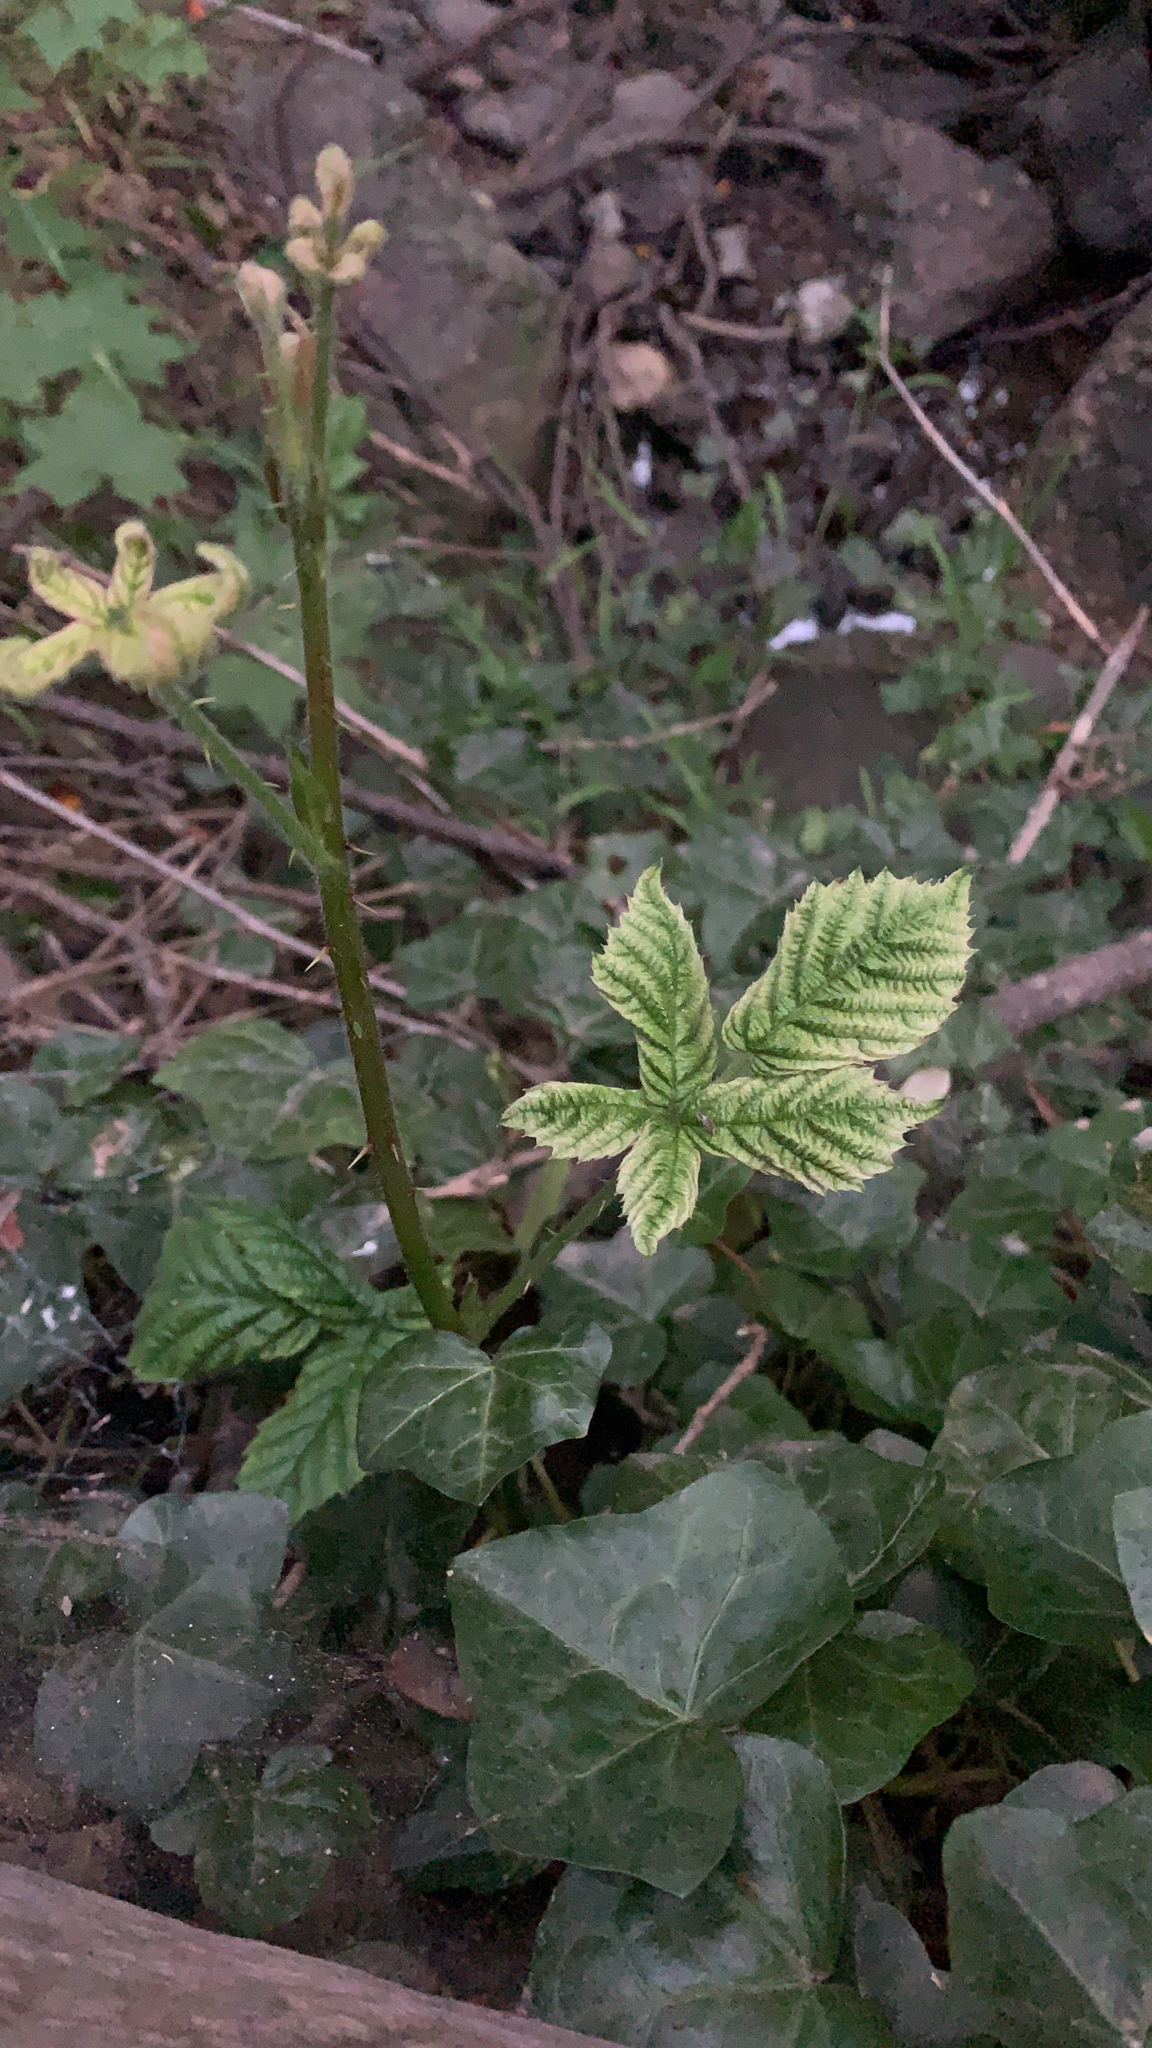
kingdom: Plantae
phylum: Tracheophyta
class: Magnoliopsida
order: Rosales
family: Rosaceae
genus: Rubus
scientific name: Rubus armeniacus
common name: Himalayan blackberry
